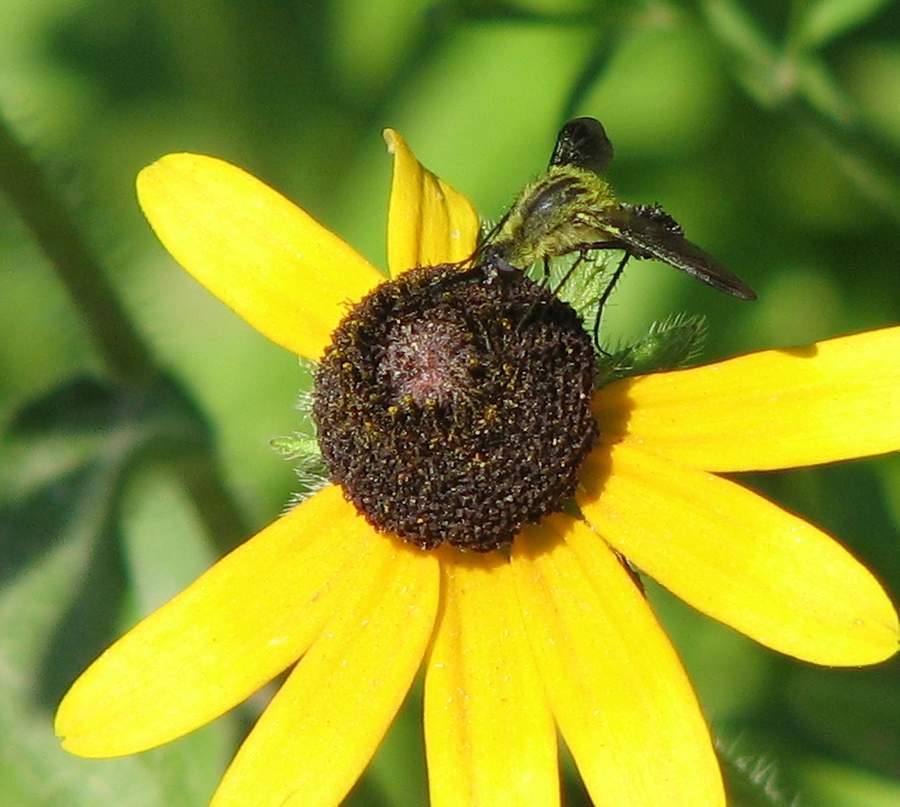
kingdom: Animalia
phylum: Arthropoda
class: Insecta
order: Diptera
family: Bombyliidae
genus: Lepidophora
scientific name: Lepidophora lutea
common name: Hunchback bee fly
